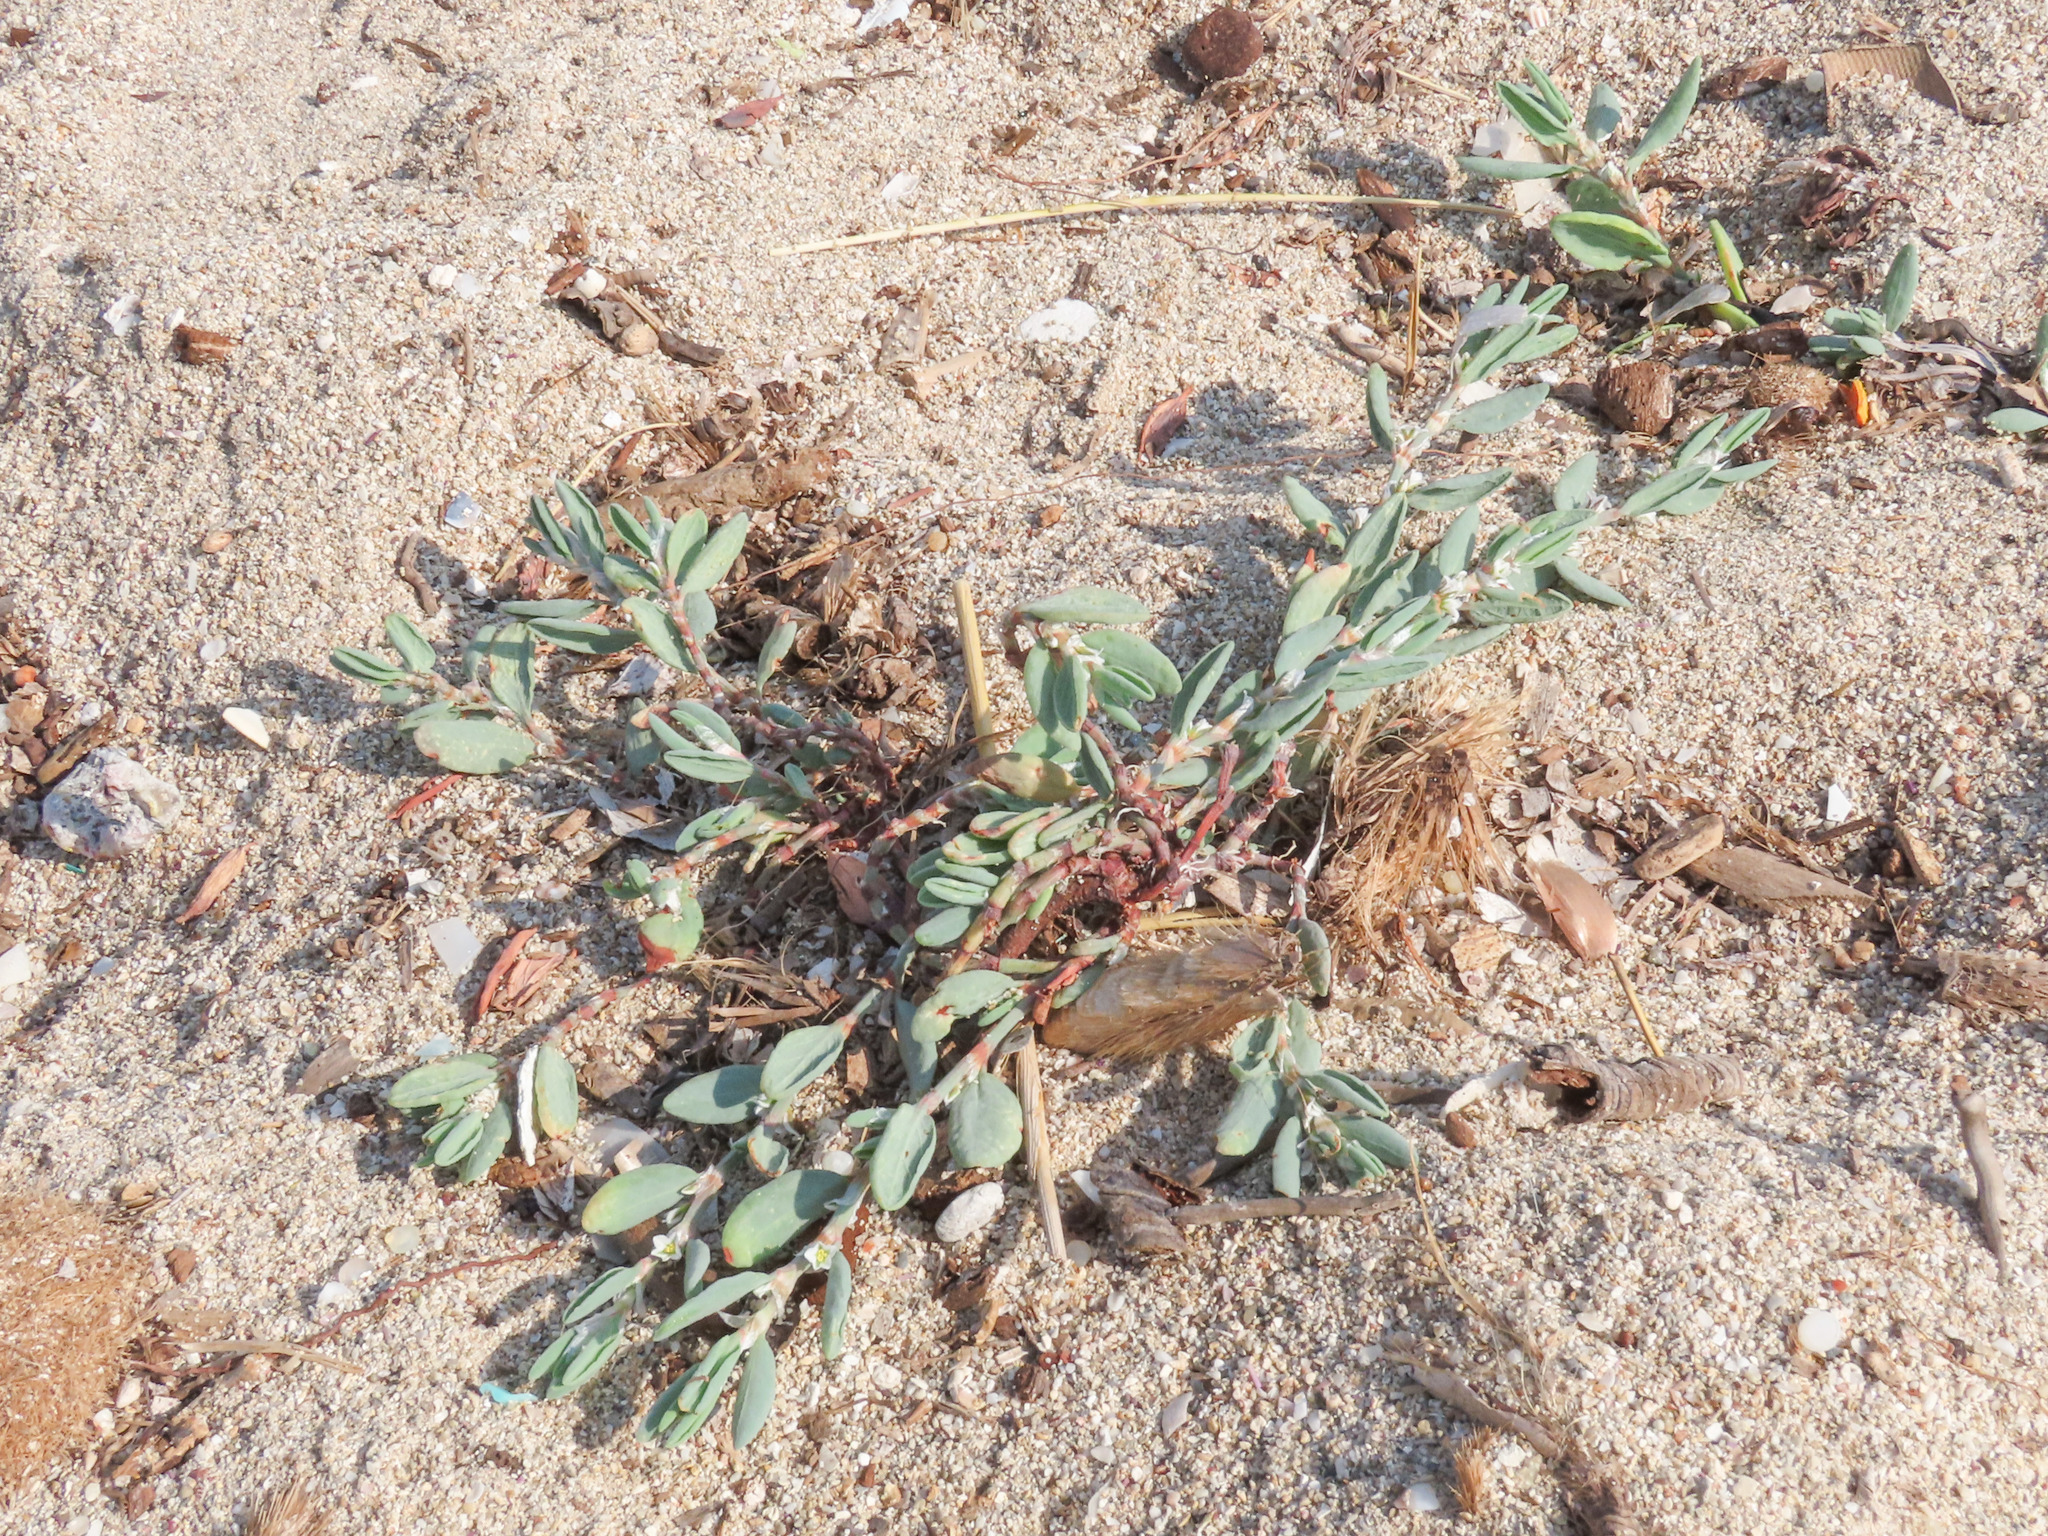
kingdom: Plantae
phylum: Tracheophyta
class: Magnoliopsida
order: Caryophyllales
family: Polygonaceae
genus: Polygonum
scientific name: Polygonum maritimum
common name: Sea knotgrass
